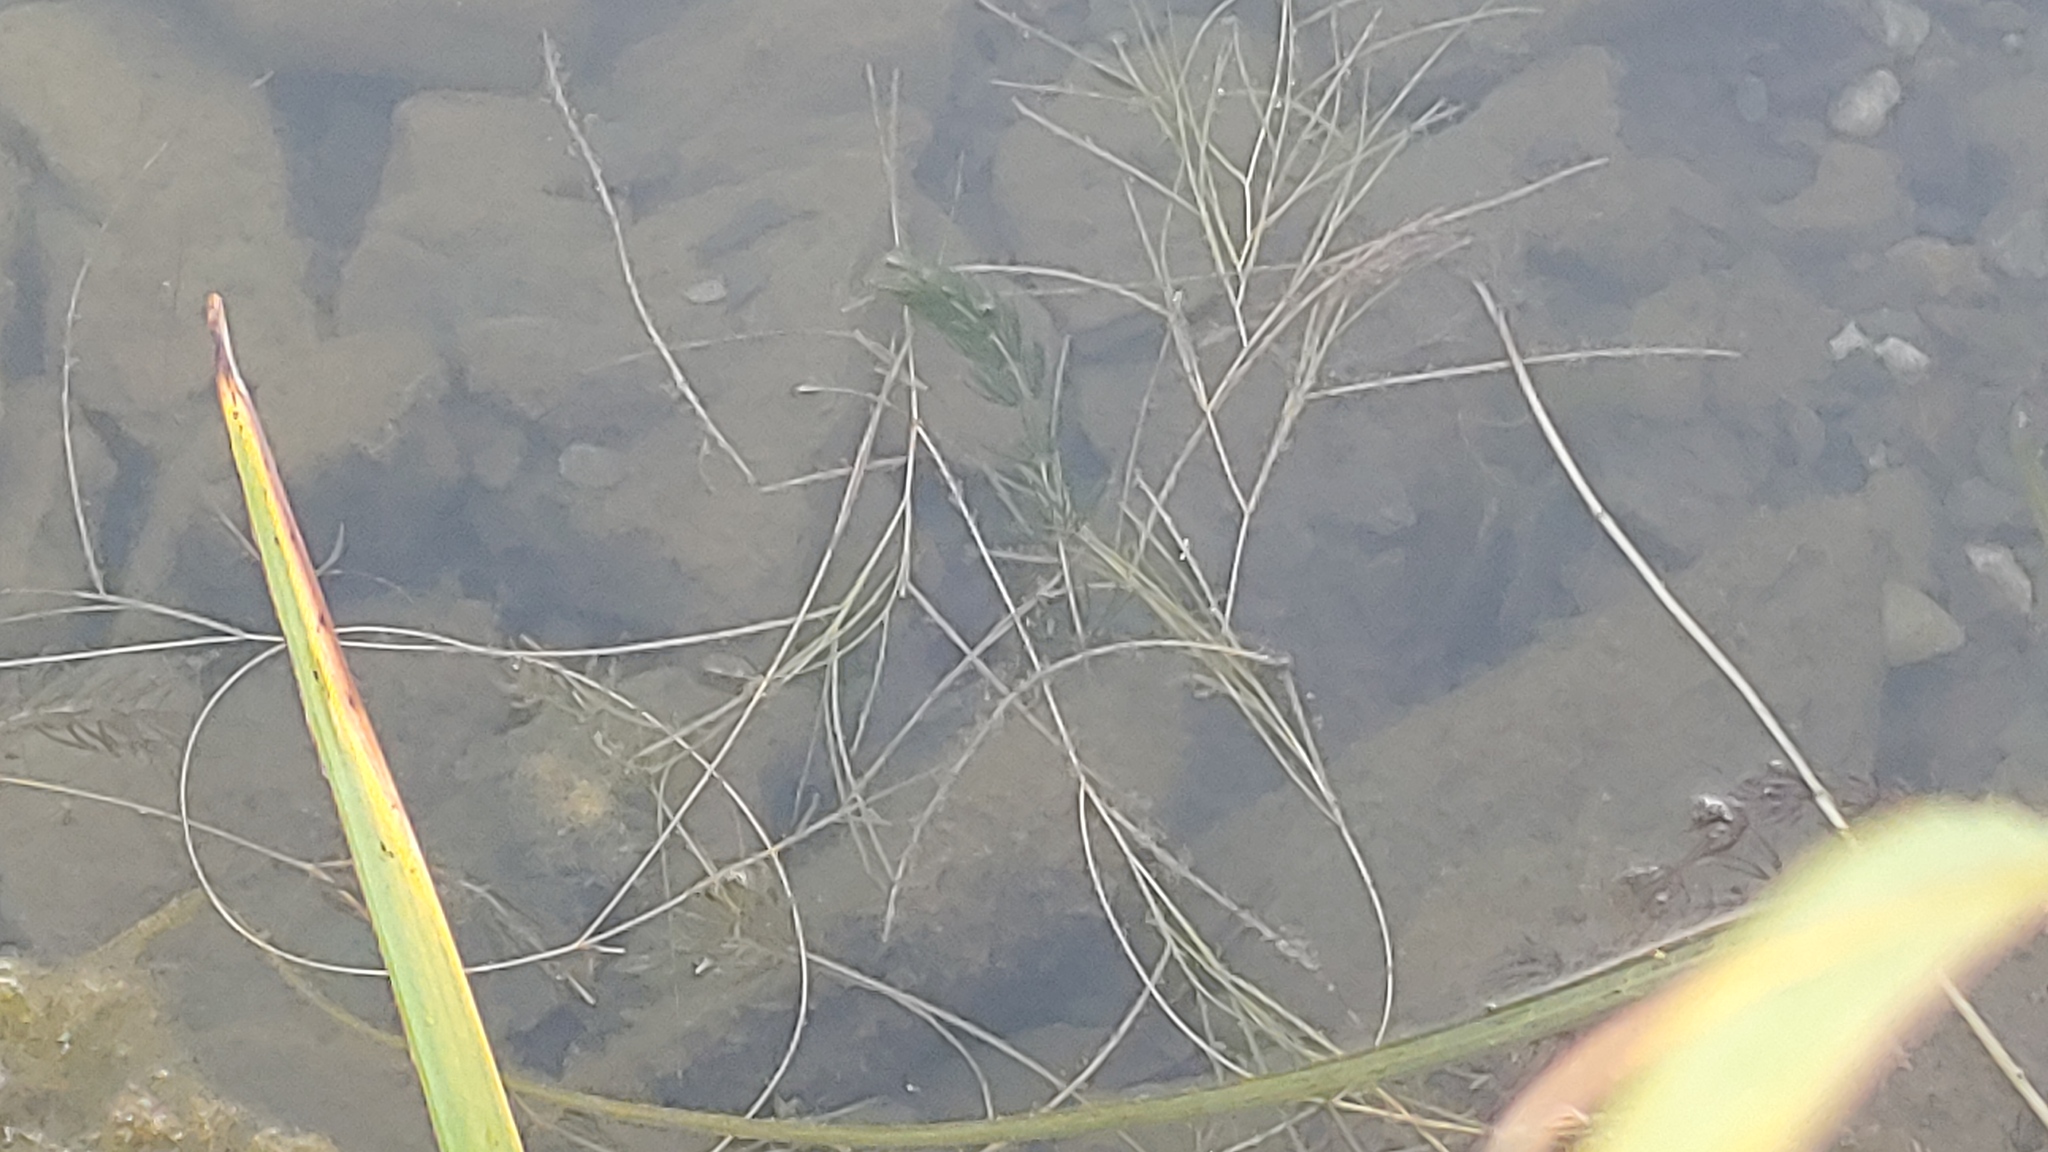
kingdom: Plantae
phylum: Tracheophyta
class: Liliopsida
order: Alismatales
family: Potamogetonaceae
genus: Stuckenia
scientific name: Stuckenia pectinata
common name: Sago pondweed
